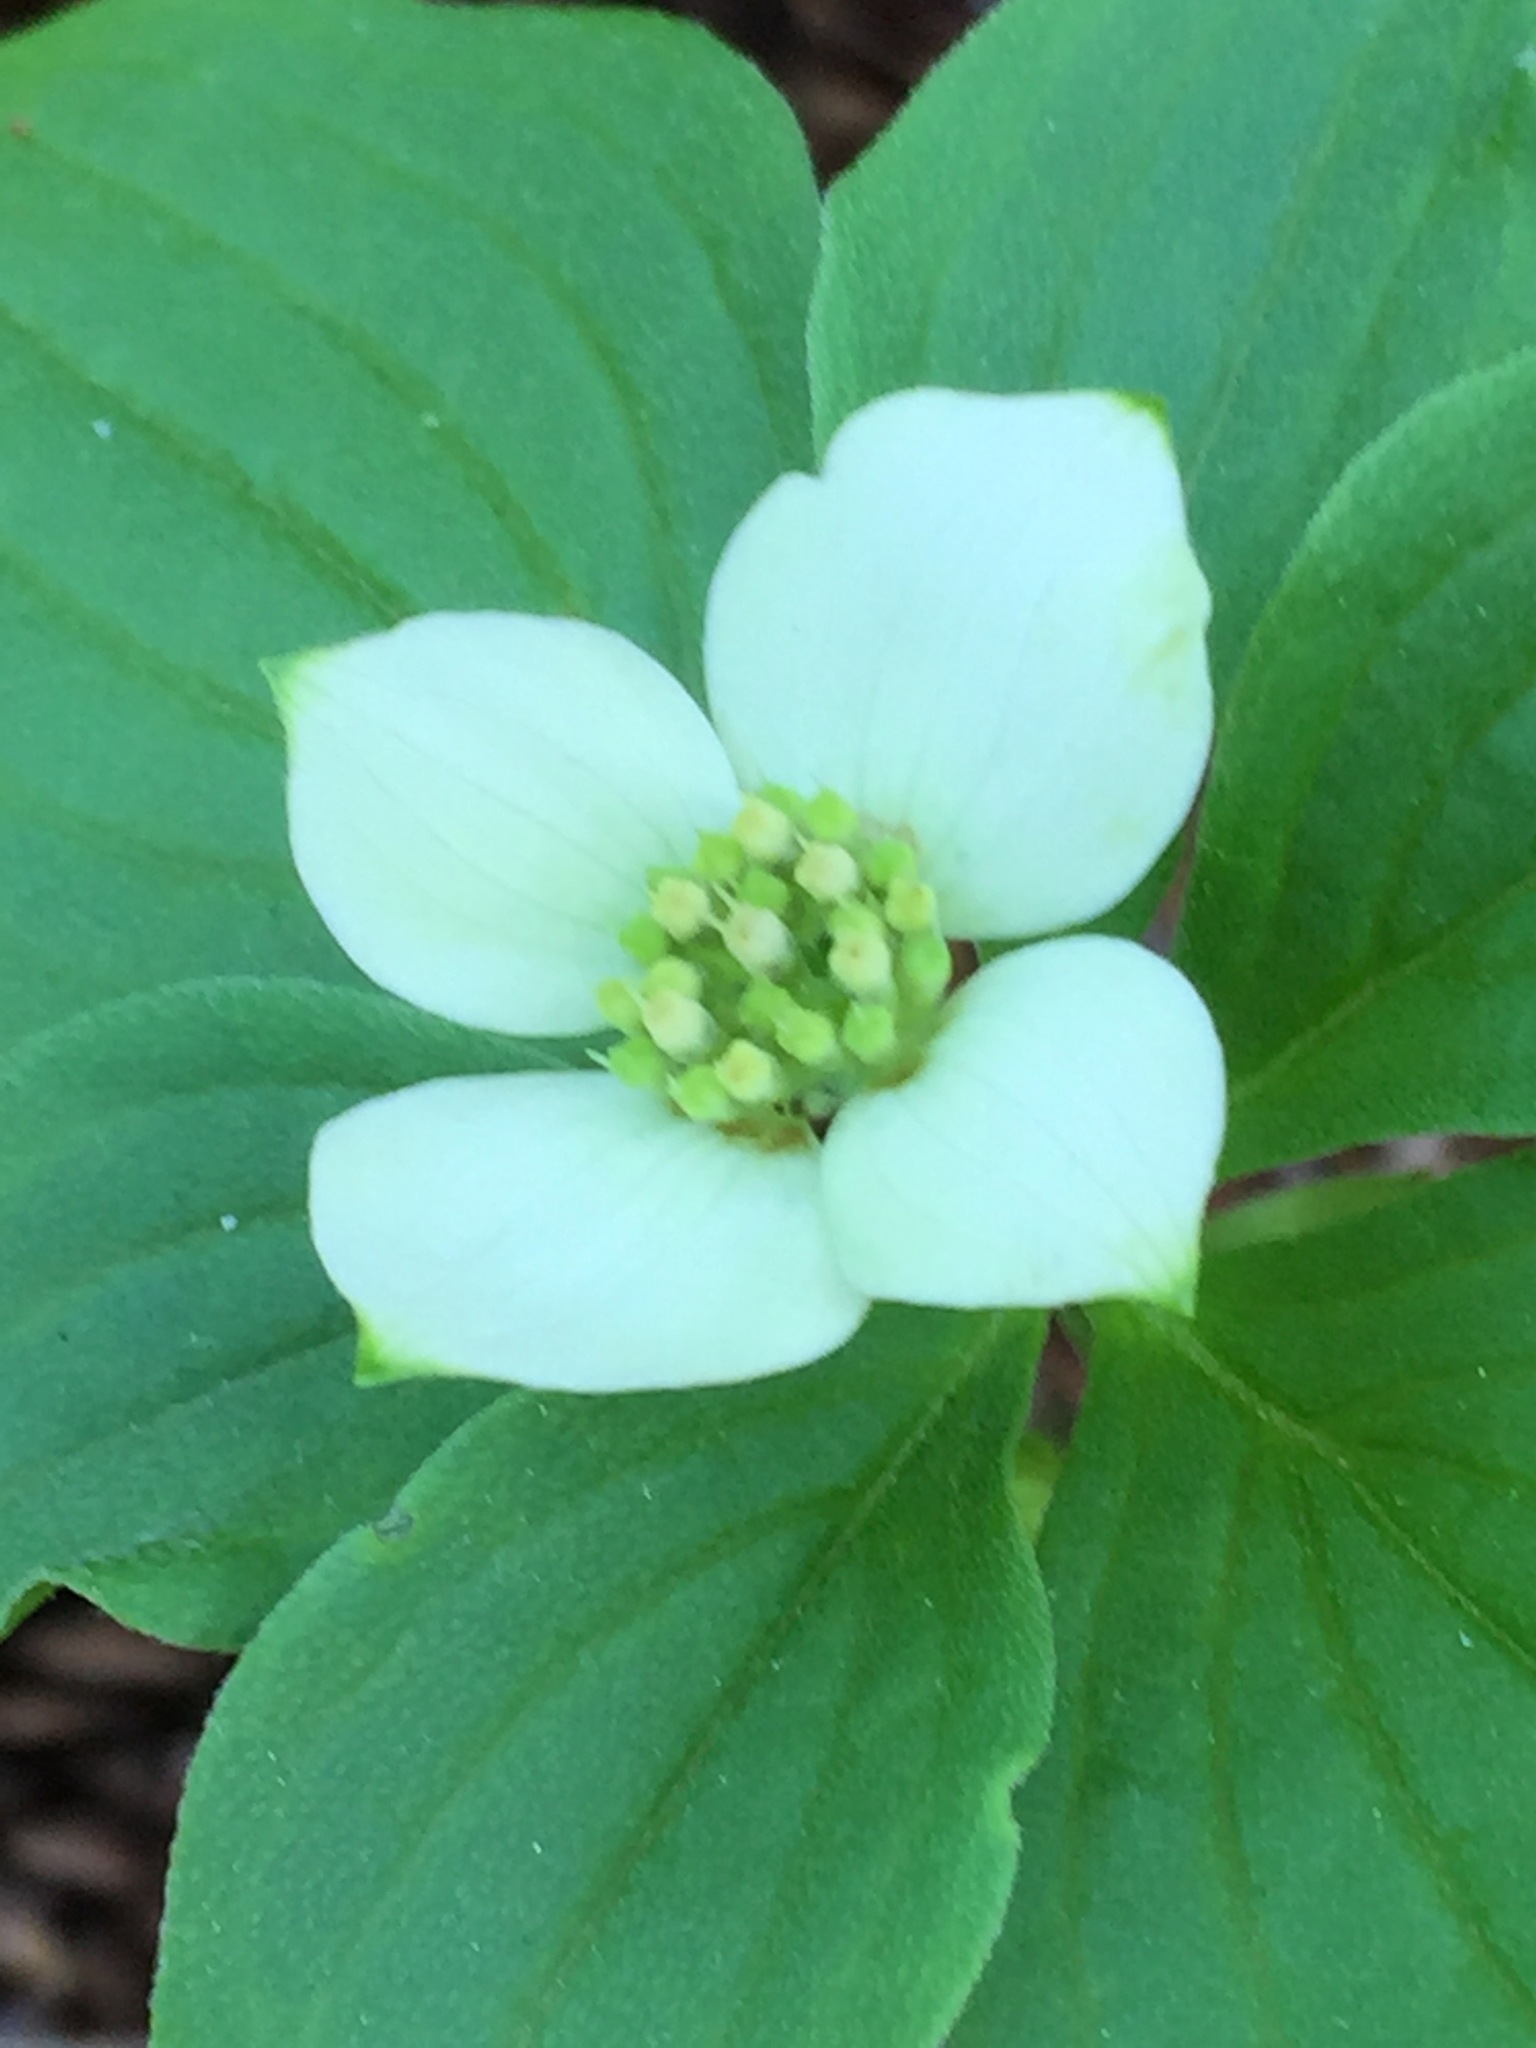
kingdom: Plantae
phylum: Tracheophyta
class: Magnoliopsida
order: Cornales
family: Cornaceae
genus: Cornus
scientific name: Cornus canadensis
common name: Creeping dogwood
